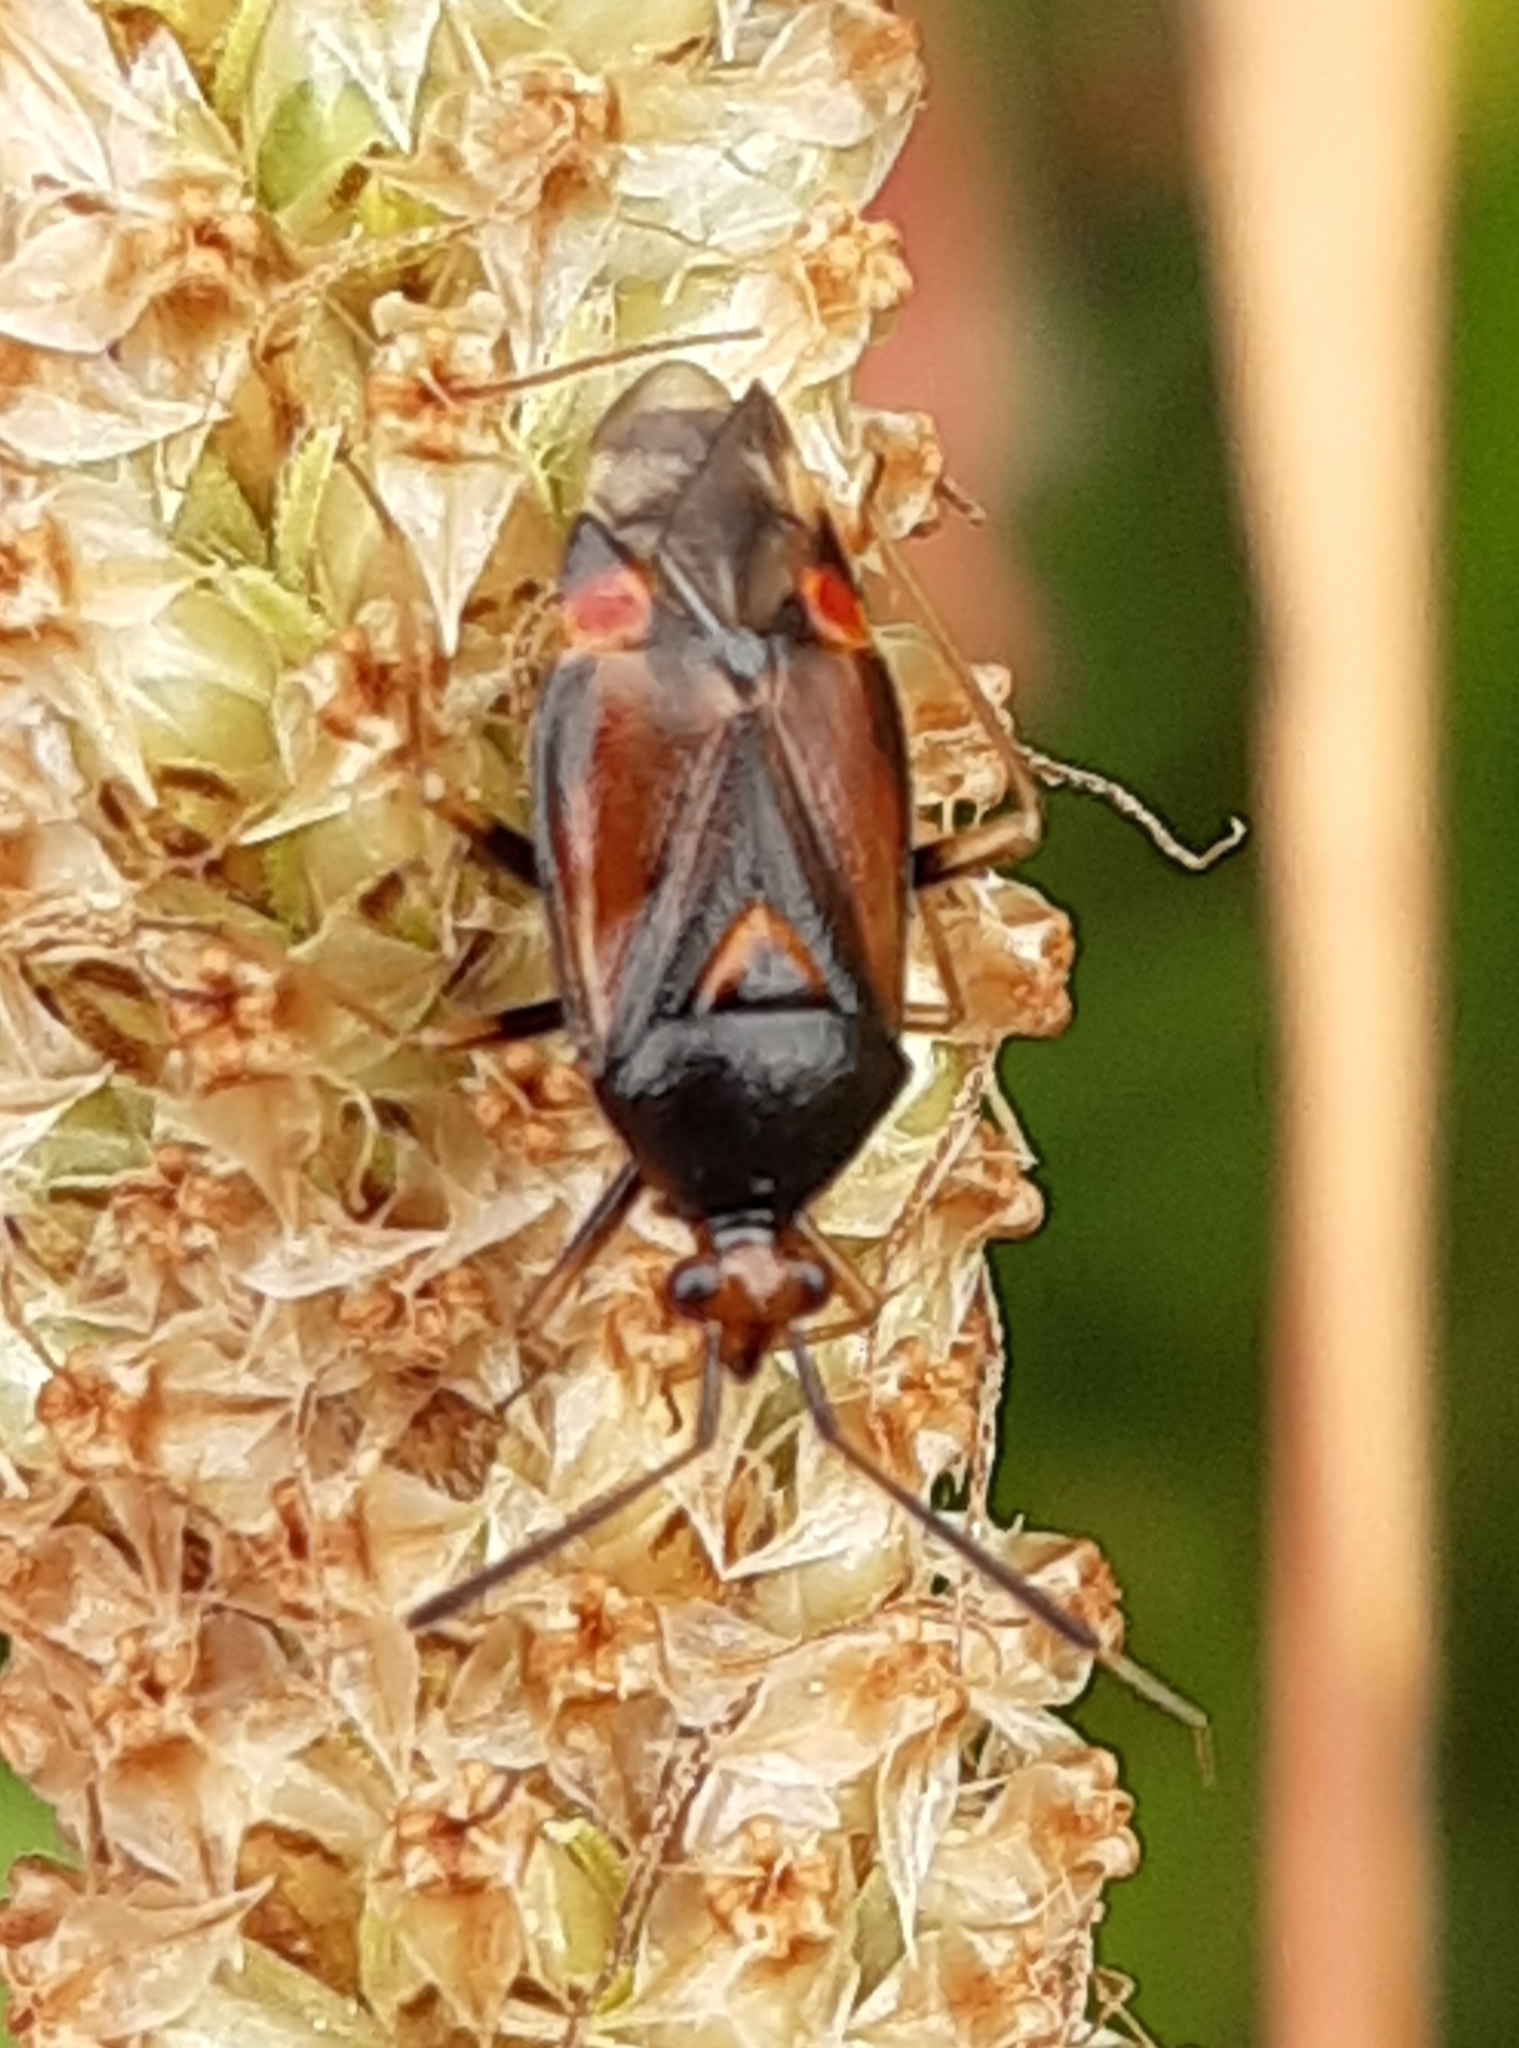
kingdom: Animalia
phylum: Arthropoda
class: Insecta
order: Hemiptera
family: Miridae
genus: Deraeocoris
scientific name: Deraeocoris ruber
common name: Plant bug
